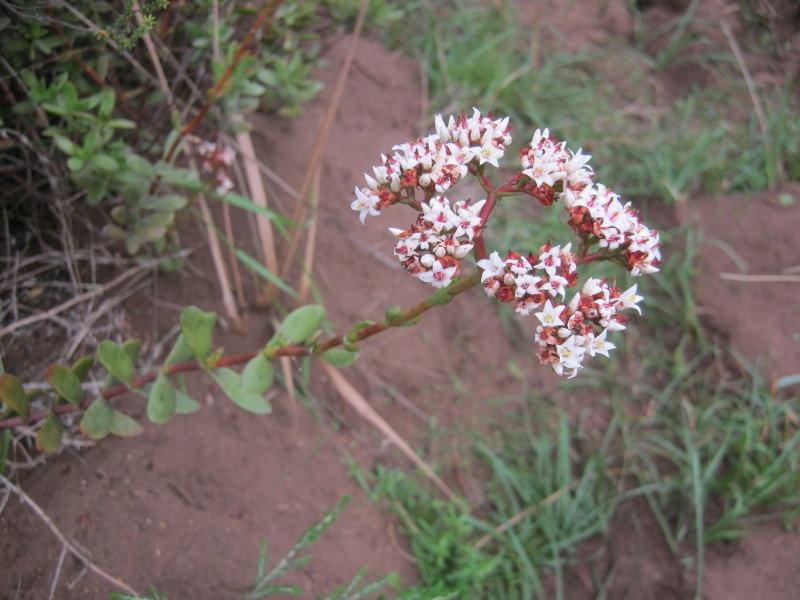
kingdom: Plantae
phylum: Tracheophyta
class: Magnoliopsida
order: Saxifragales
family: Crassulaceae
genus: Crassula
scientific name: Crassula rubricaulis
